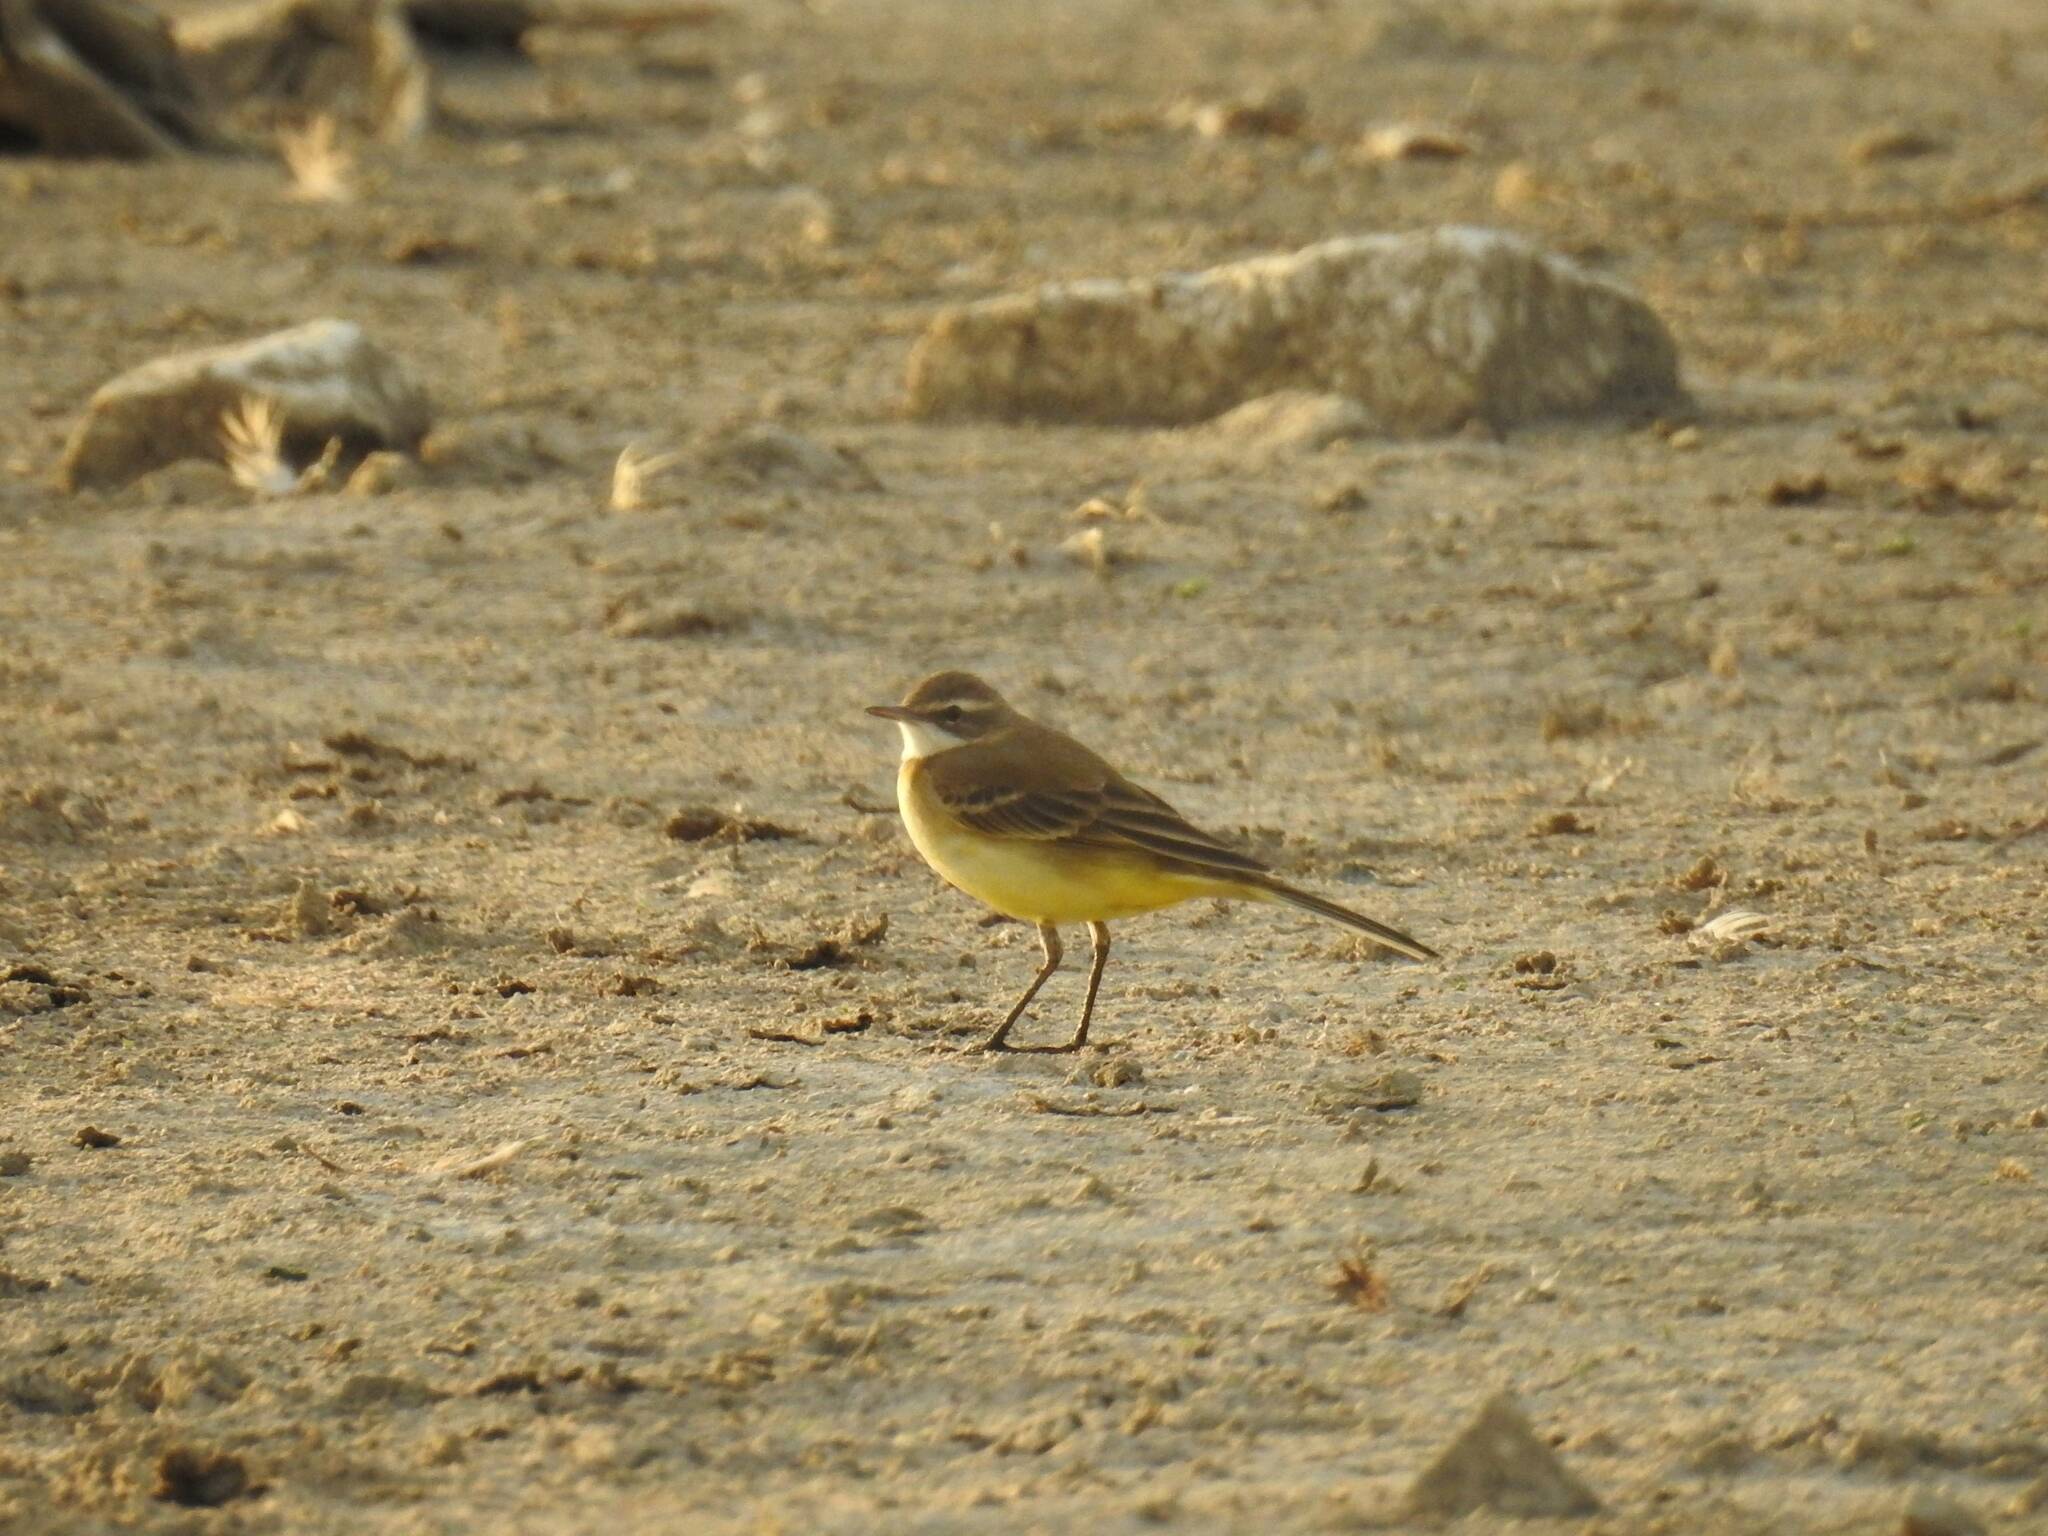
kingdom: Animalia
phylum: Chordata
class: Aves
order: Passeriformes
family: Motacillidae
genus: Motacilla
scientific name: Motacilla flava
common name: Western yellow wagtail
